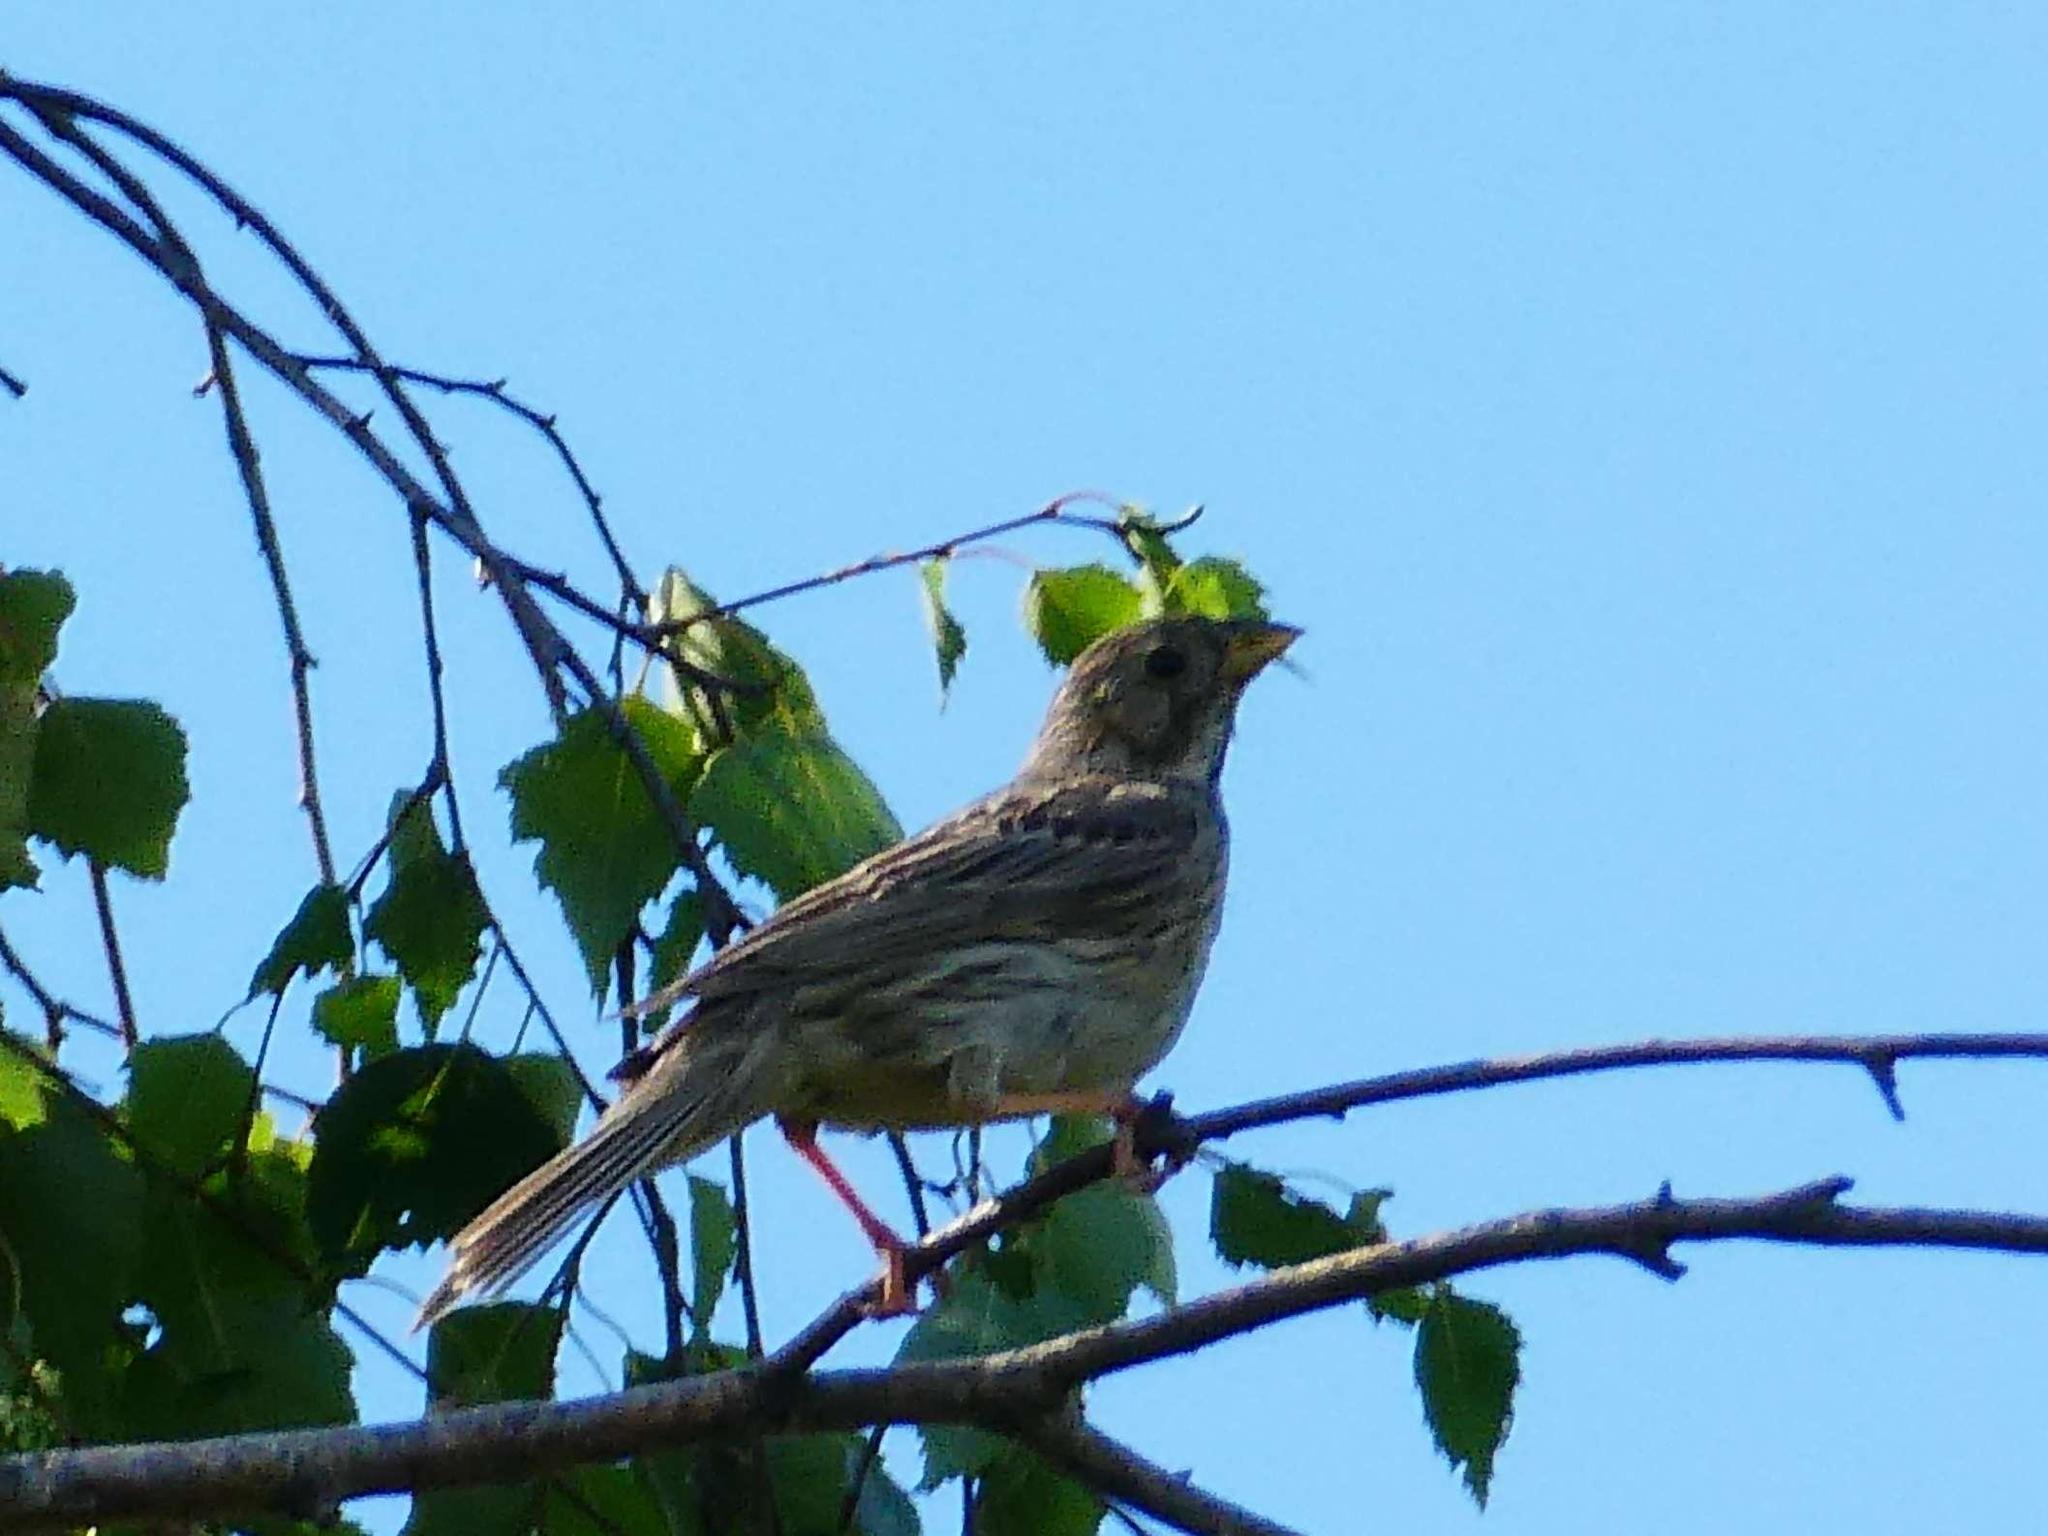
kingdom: Animalia
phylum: Chordata
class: Aves
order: Passeriformes
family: Emberizidae
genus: Emberiza
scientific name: Emberiza calandra
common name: Corn bunting
